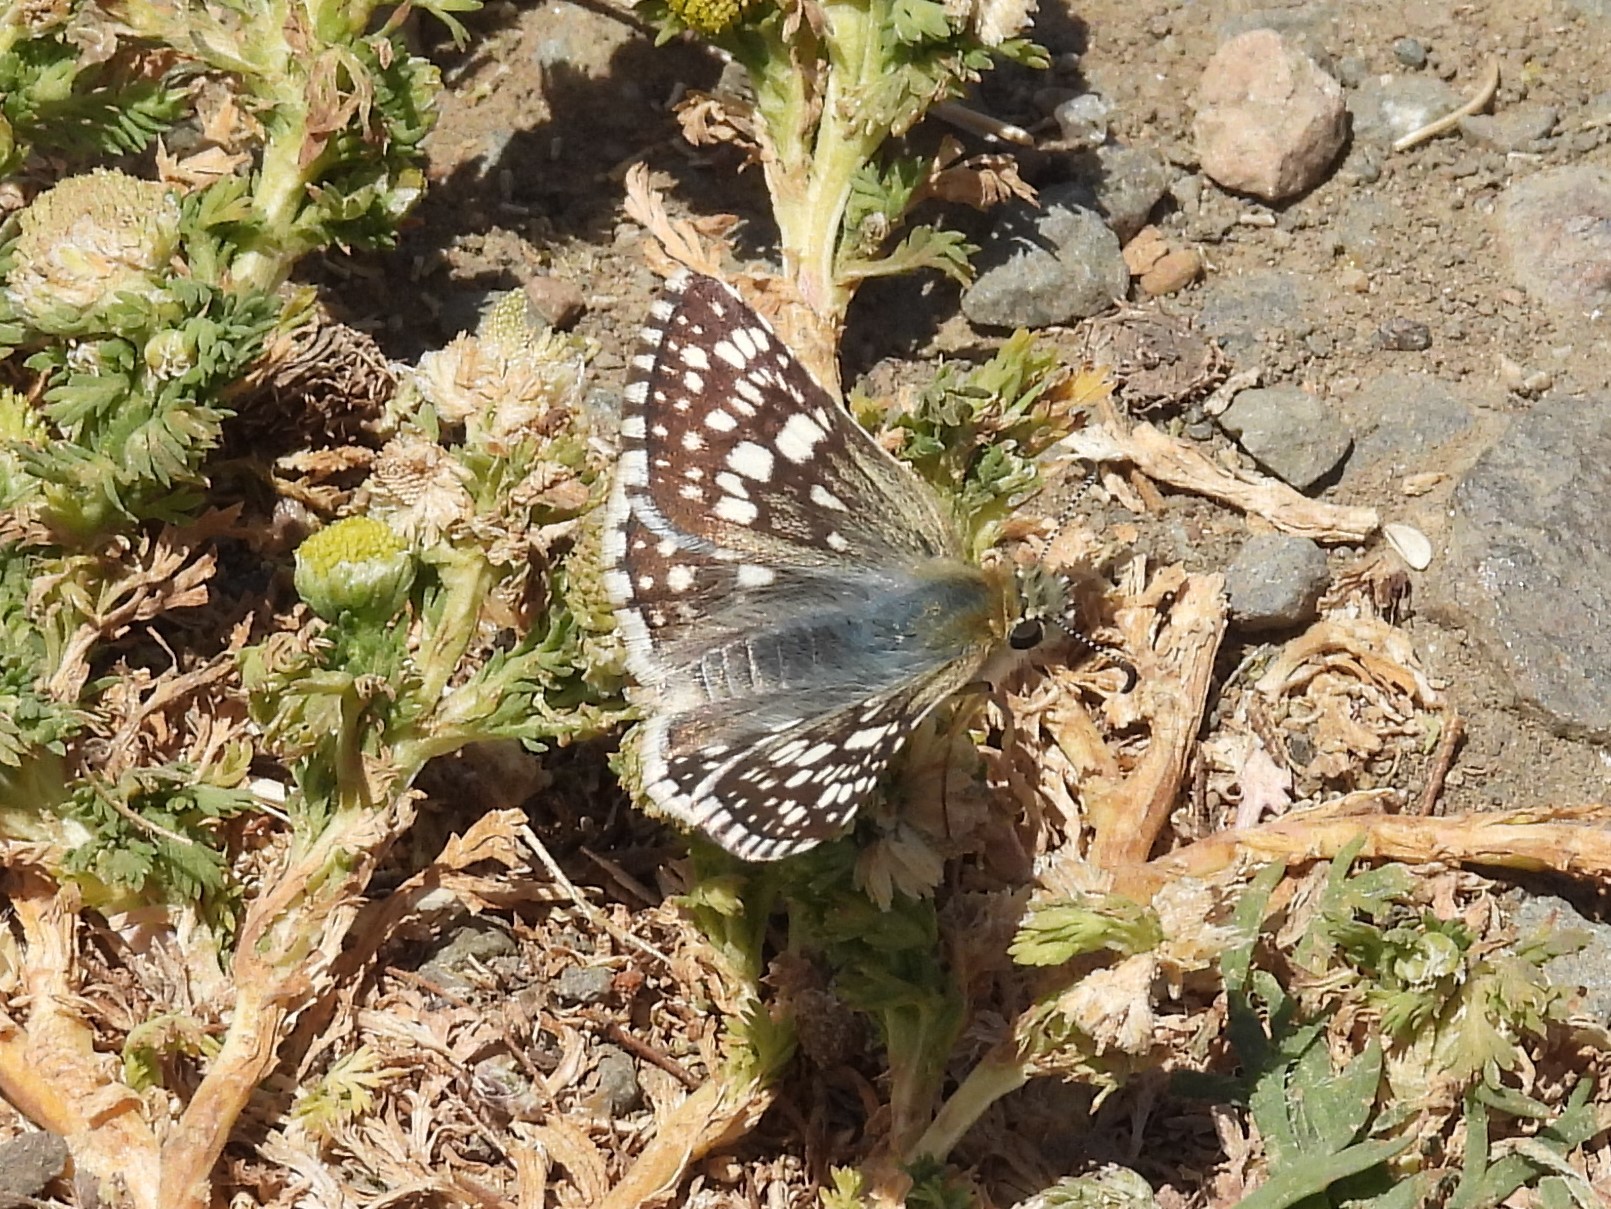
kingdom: Animalia
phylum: Arthropoda
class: Insecta
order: Lepidoptera
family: Hesperiidae
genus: Burnsius
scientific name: Burnsius communis
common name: Common checkered-skipper
